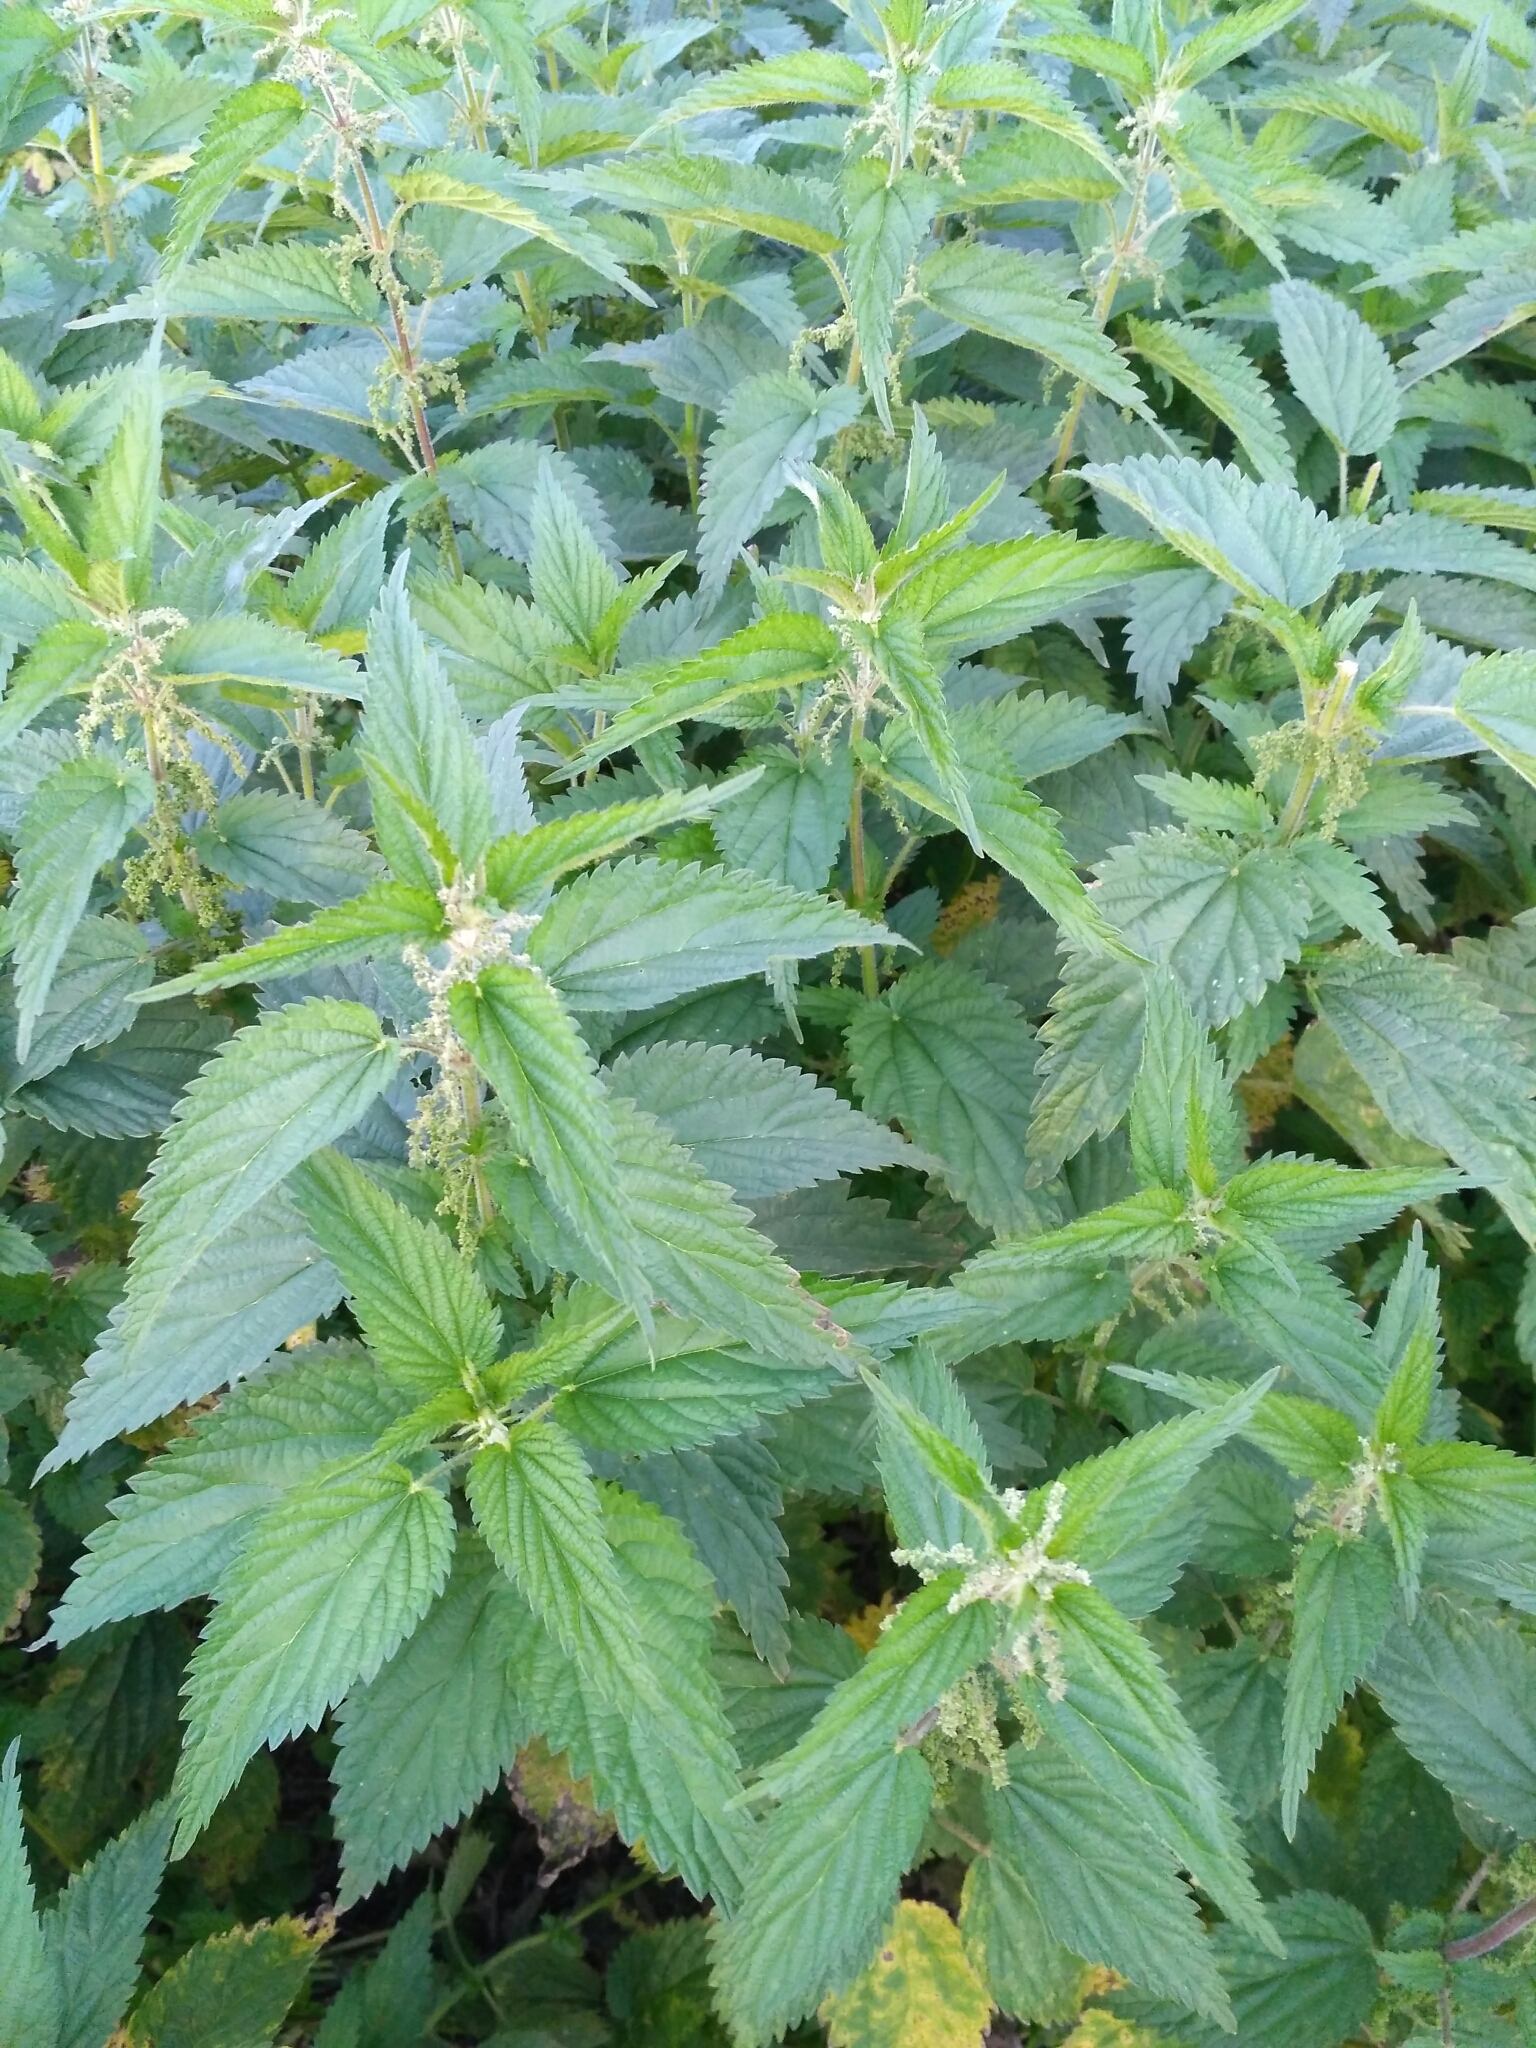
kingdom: Plantae
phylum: Tracheophyta
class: Magnoliopsida
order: Rosales
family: Urticaceae
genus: Urtica
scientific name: Urtica dioica
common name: Common nettle
